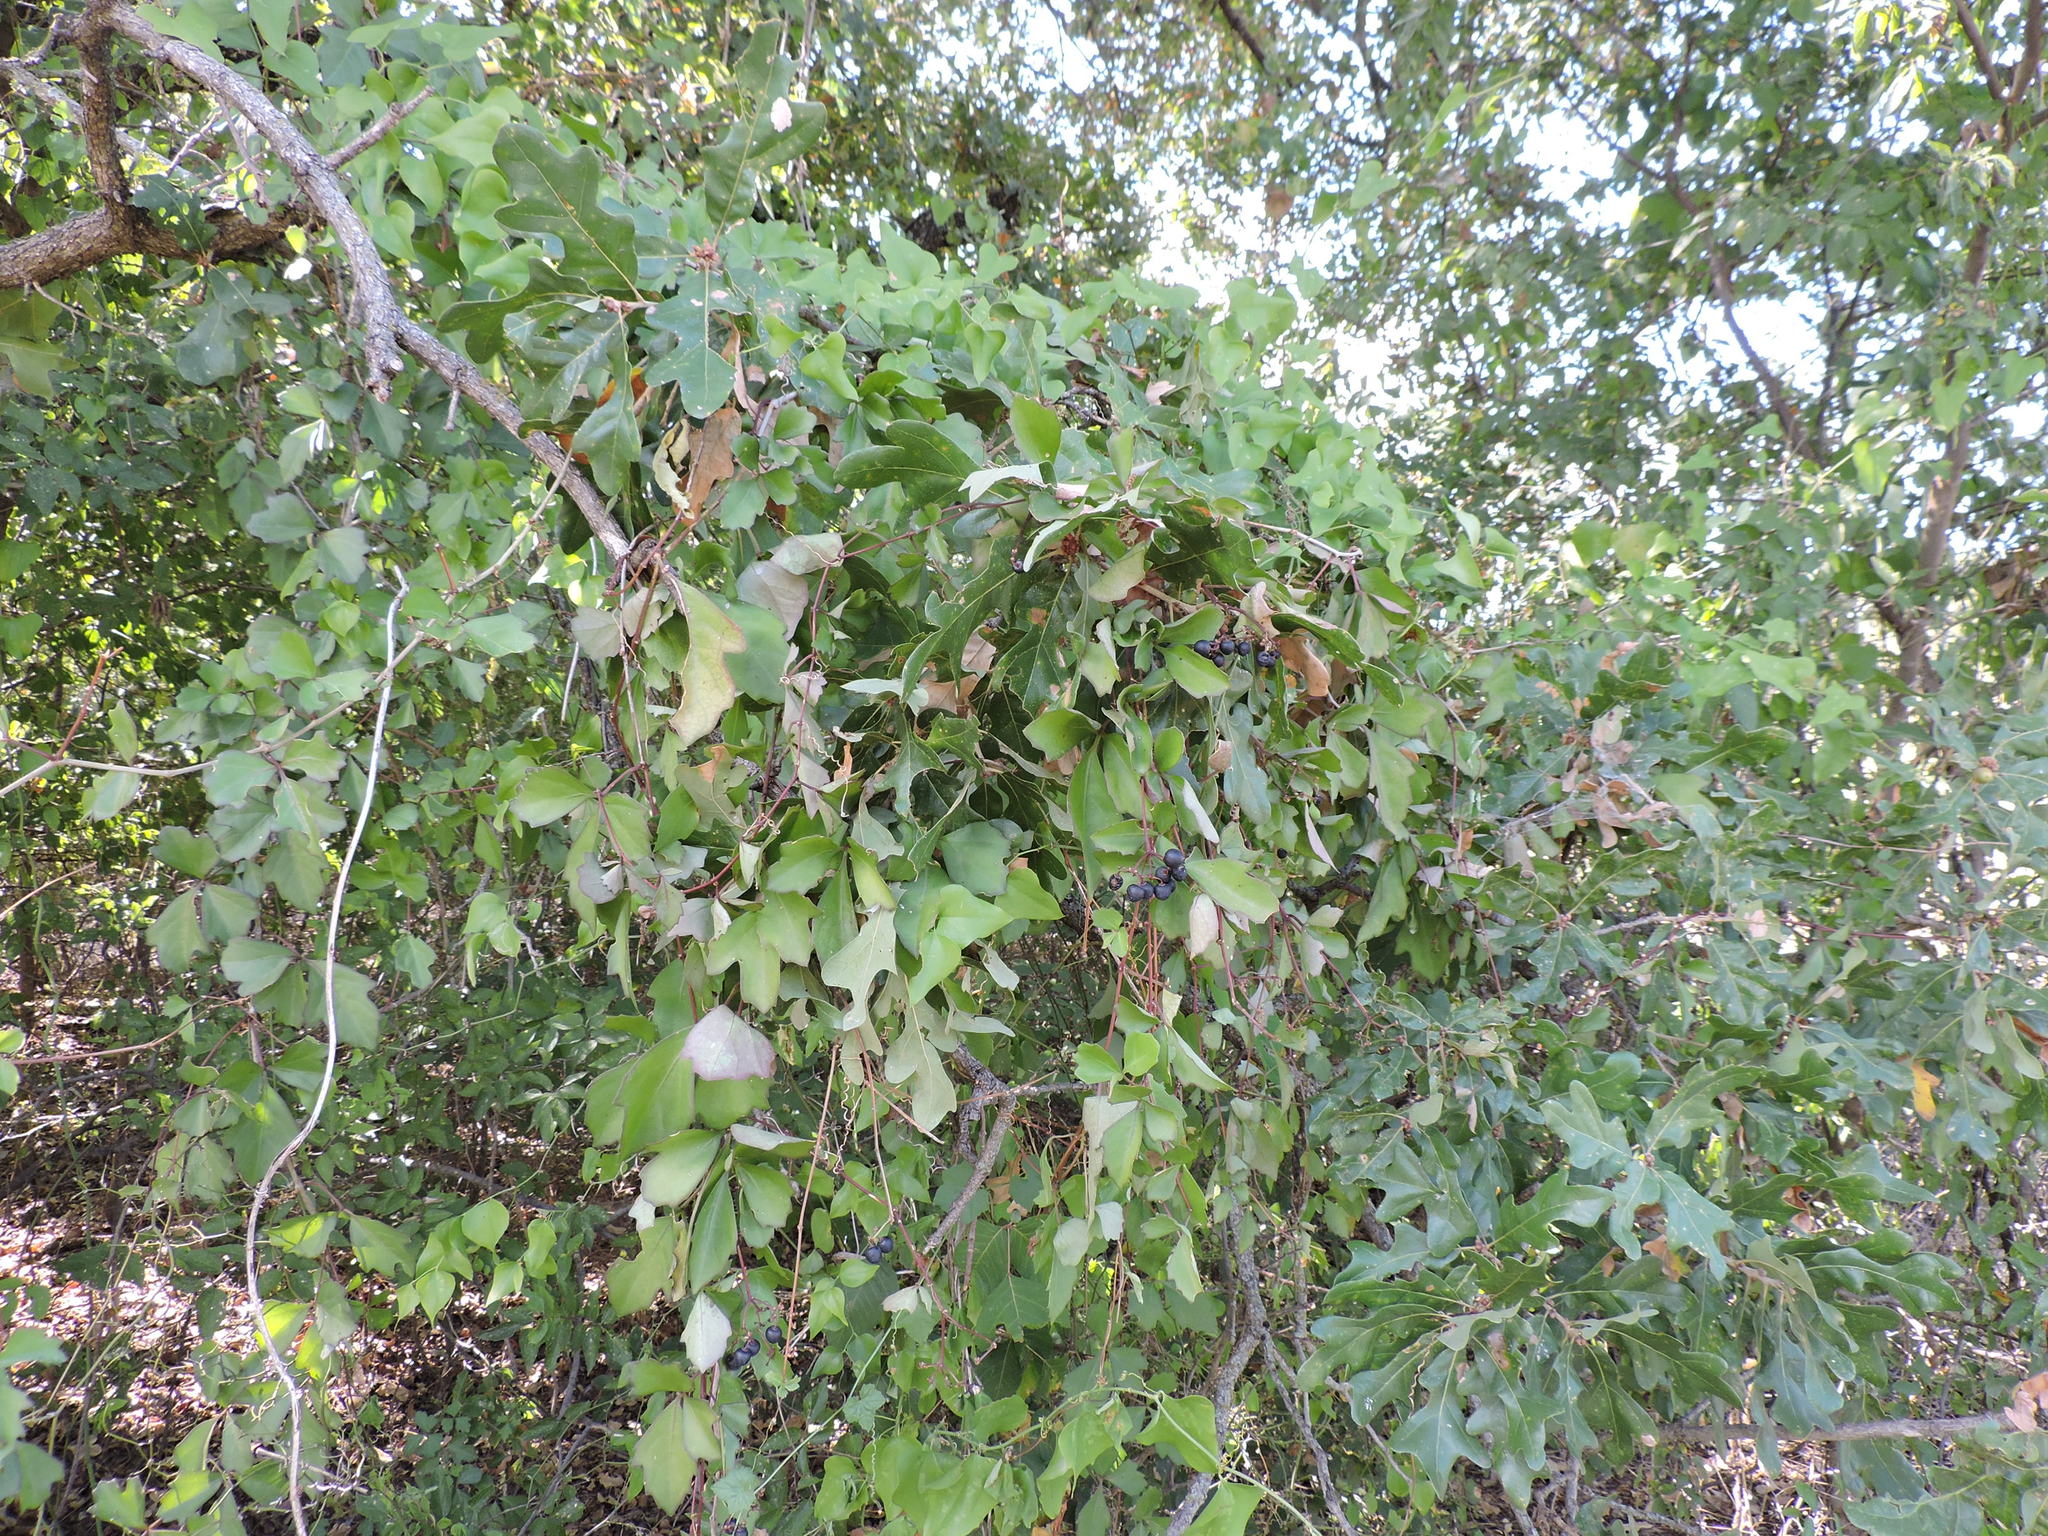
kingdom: Plantae
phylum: Tracheophyta
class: Magnoliopsida
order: Vitales
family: Vitaceae
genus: Cissus
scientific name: Cissus trifoliata
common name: Vine-sorrel
